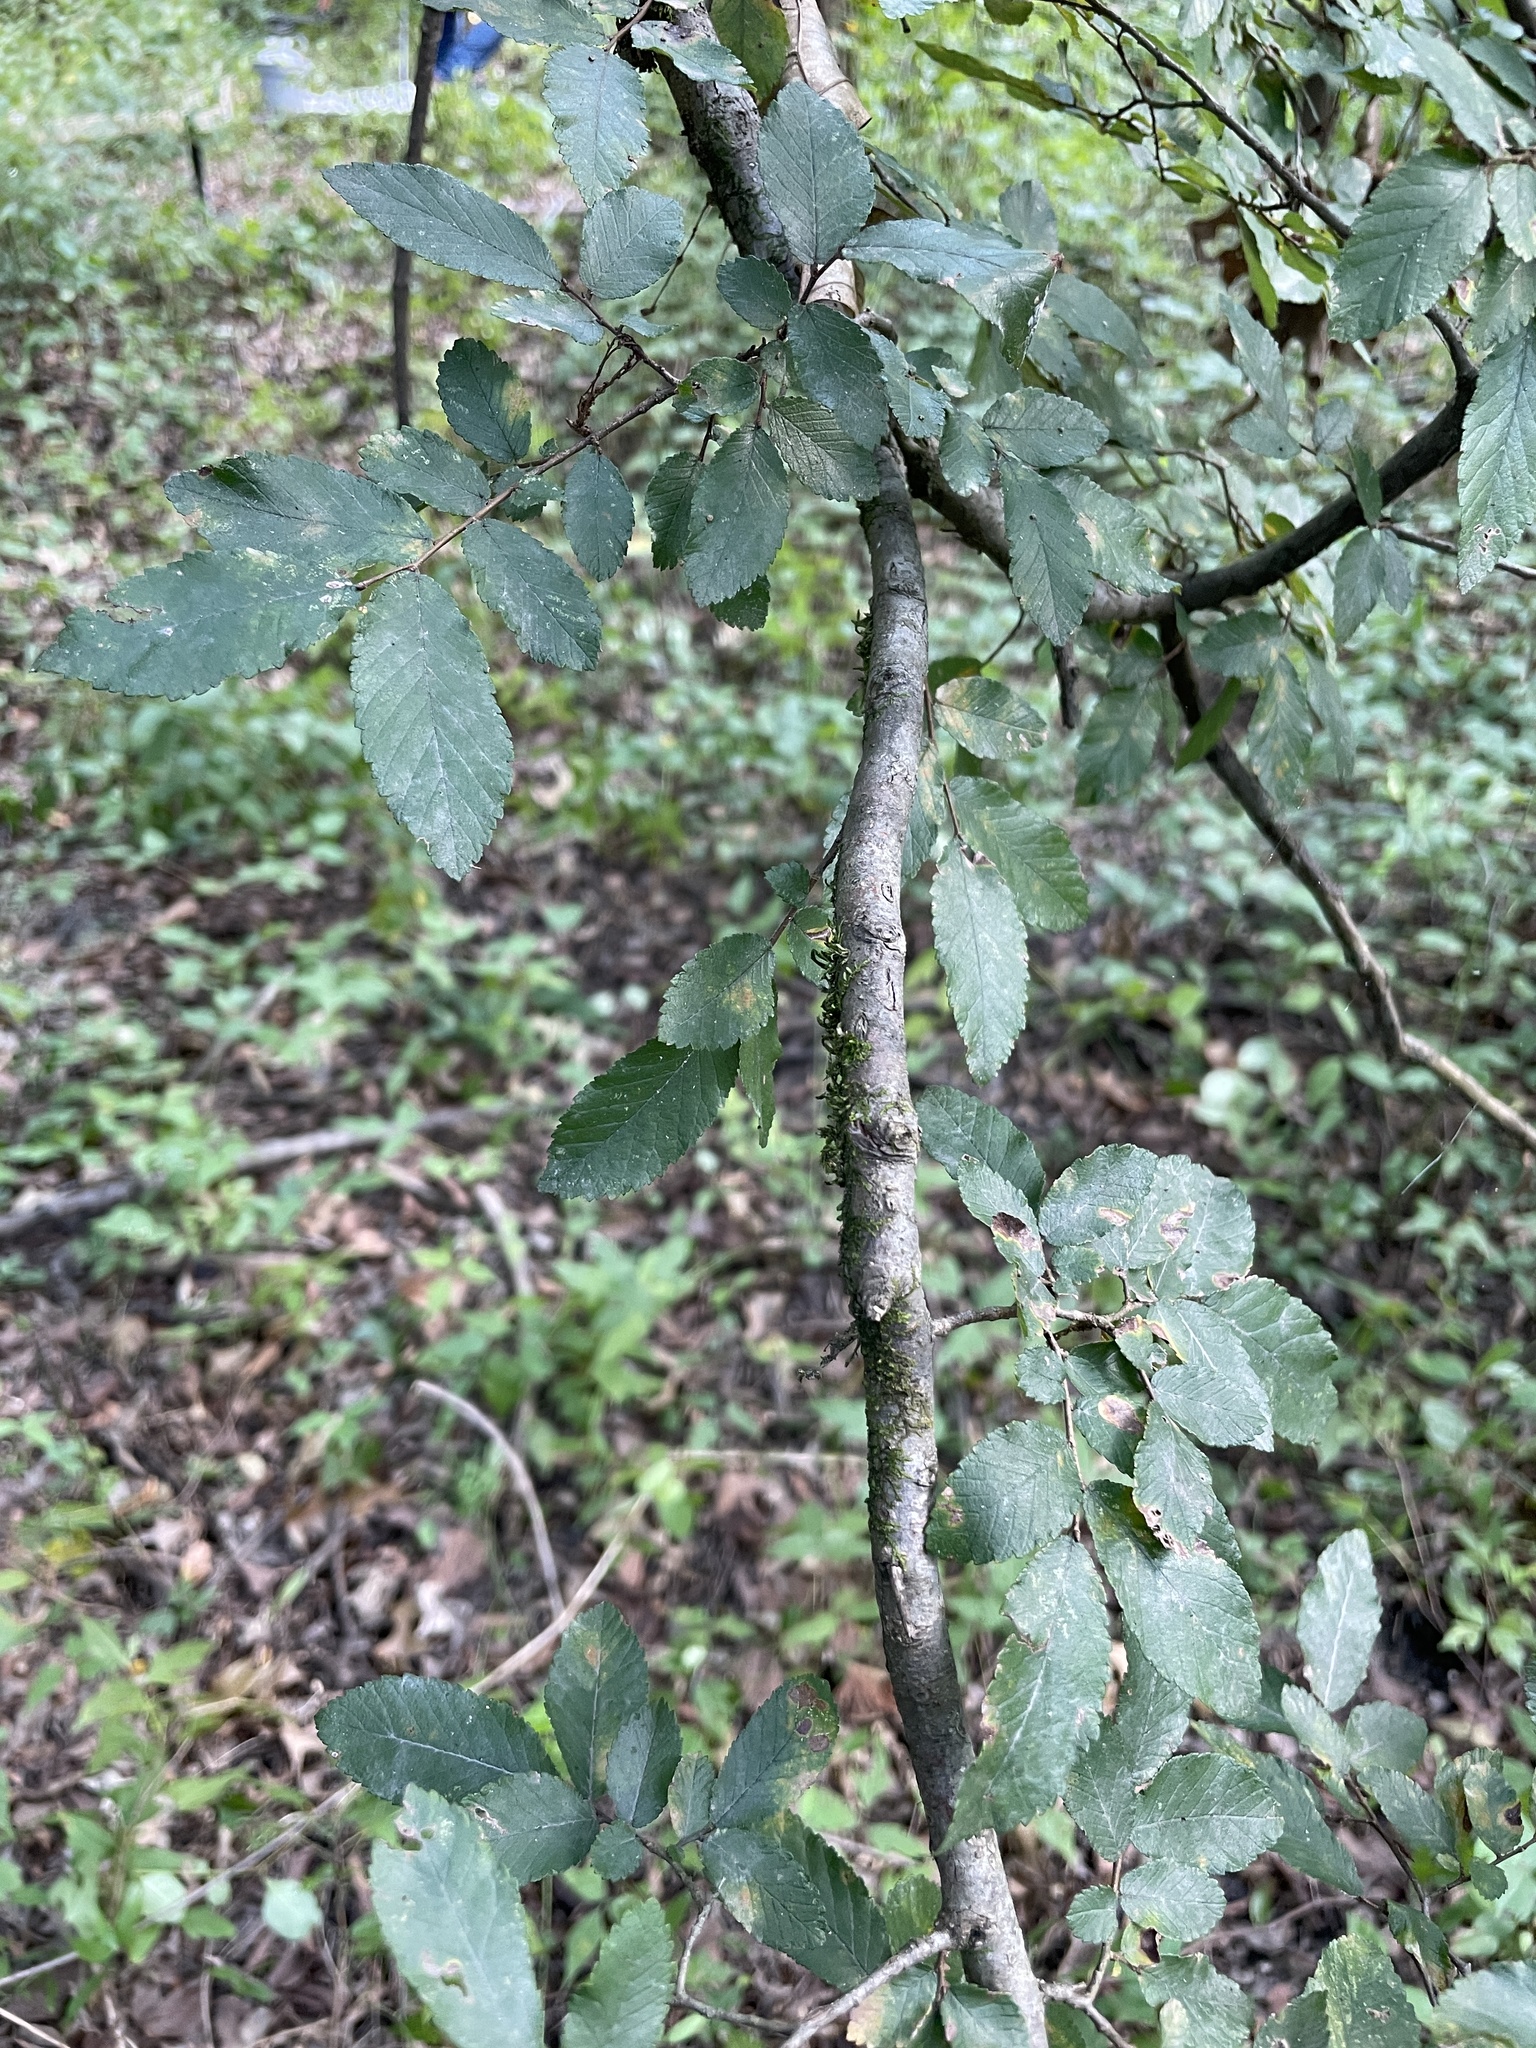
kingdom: Plantae
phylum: Tracheophyta
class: Magnoliopsida
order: Rosales
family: Ulmaceae
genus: Ulmus
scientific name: Ulmus alata
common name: Winged elm
